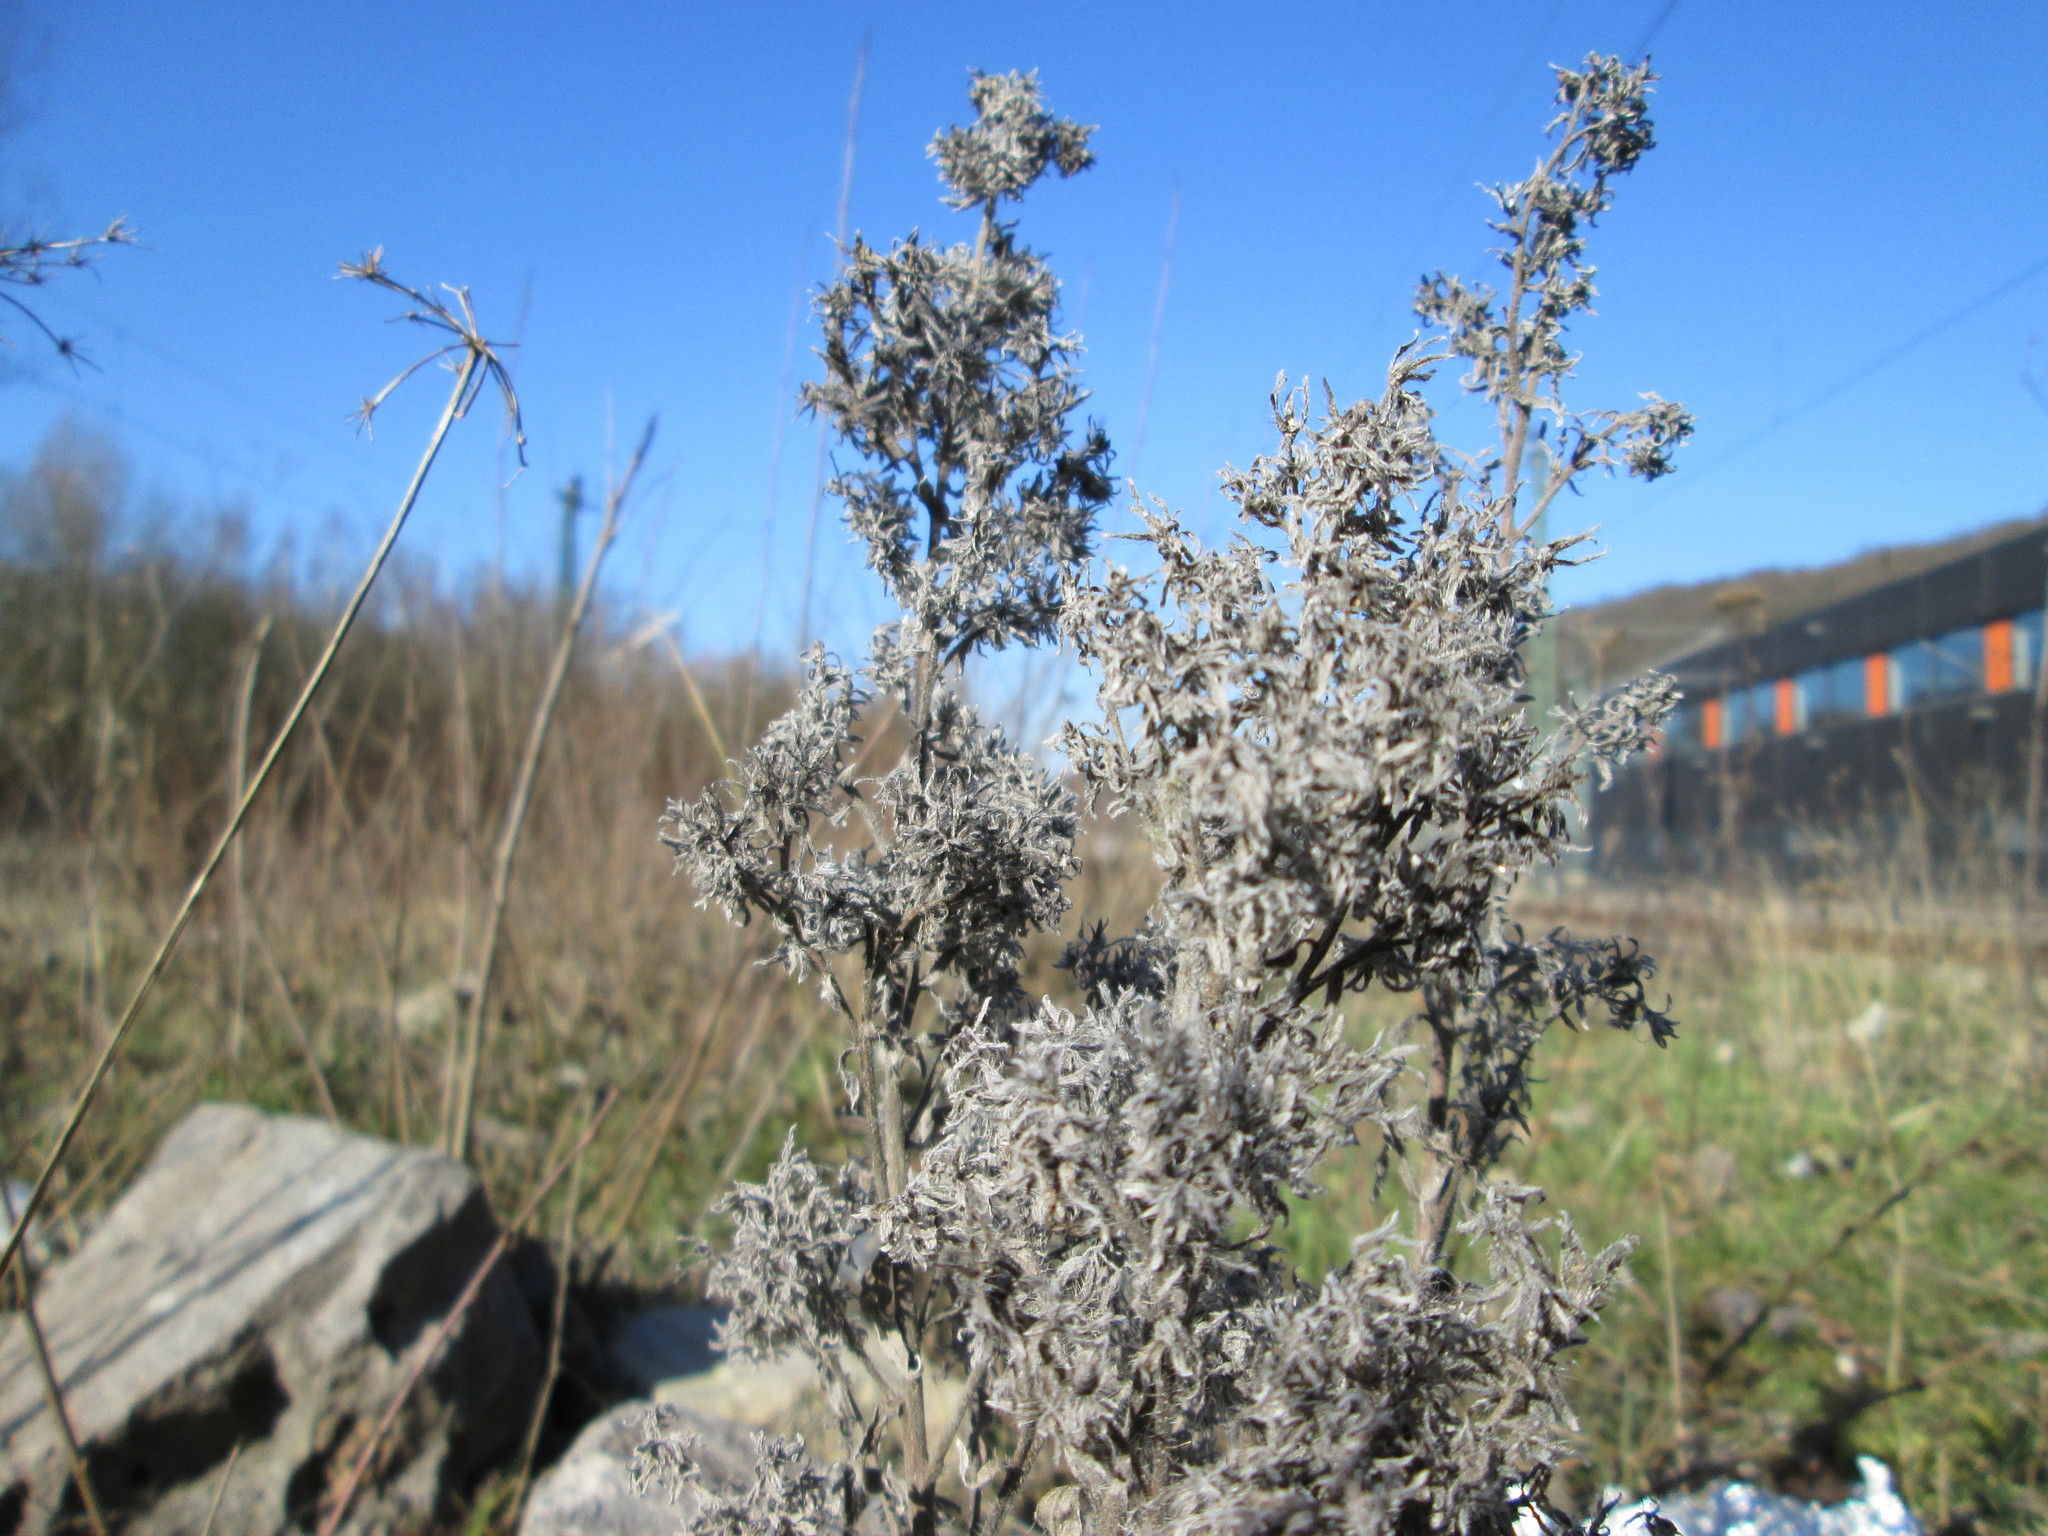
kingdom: Plantae
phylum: Tracheophyta
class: Magnoliopsida
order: Boraginales
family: Boraginaceae
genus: Echium
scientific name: Echium vulgare
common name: Common viper's bugloss
